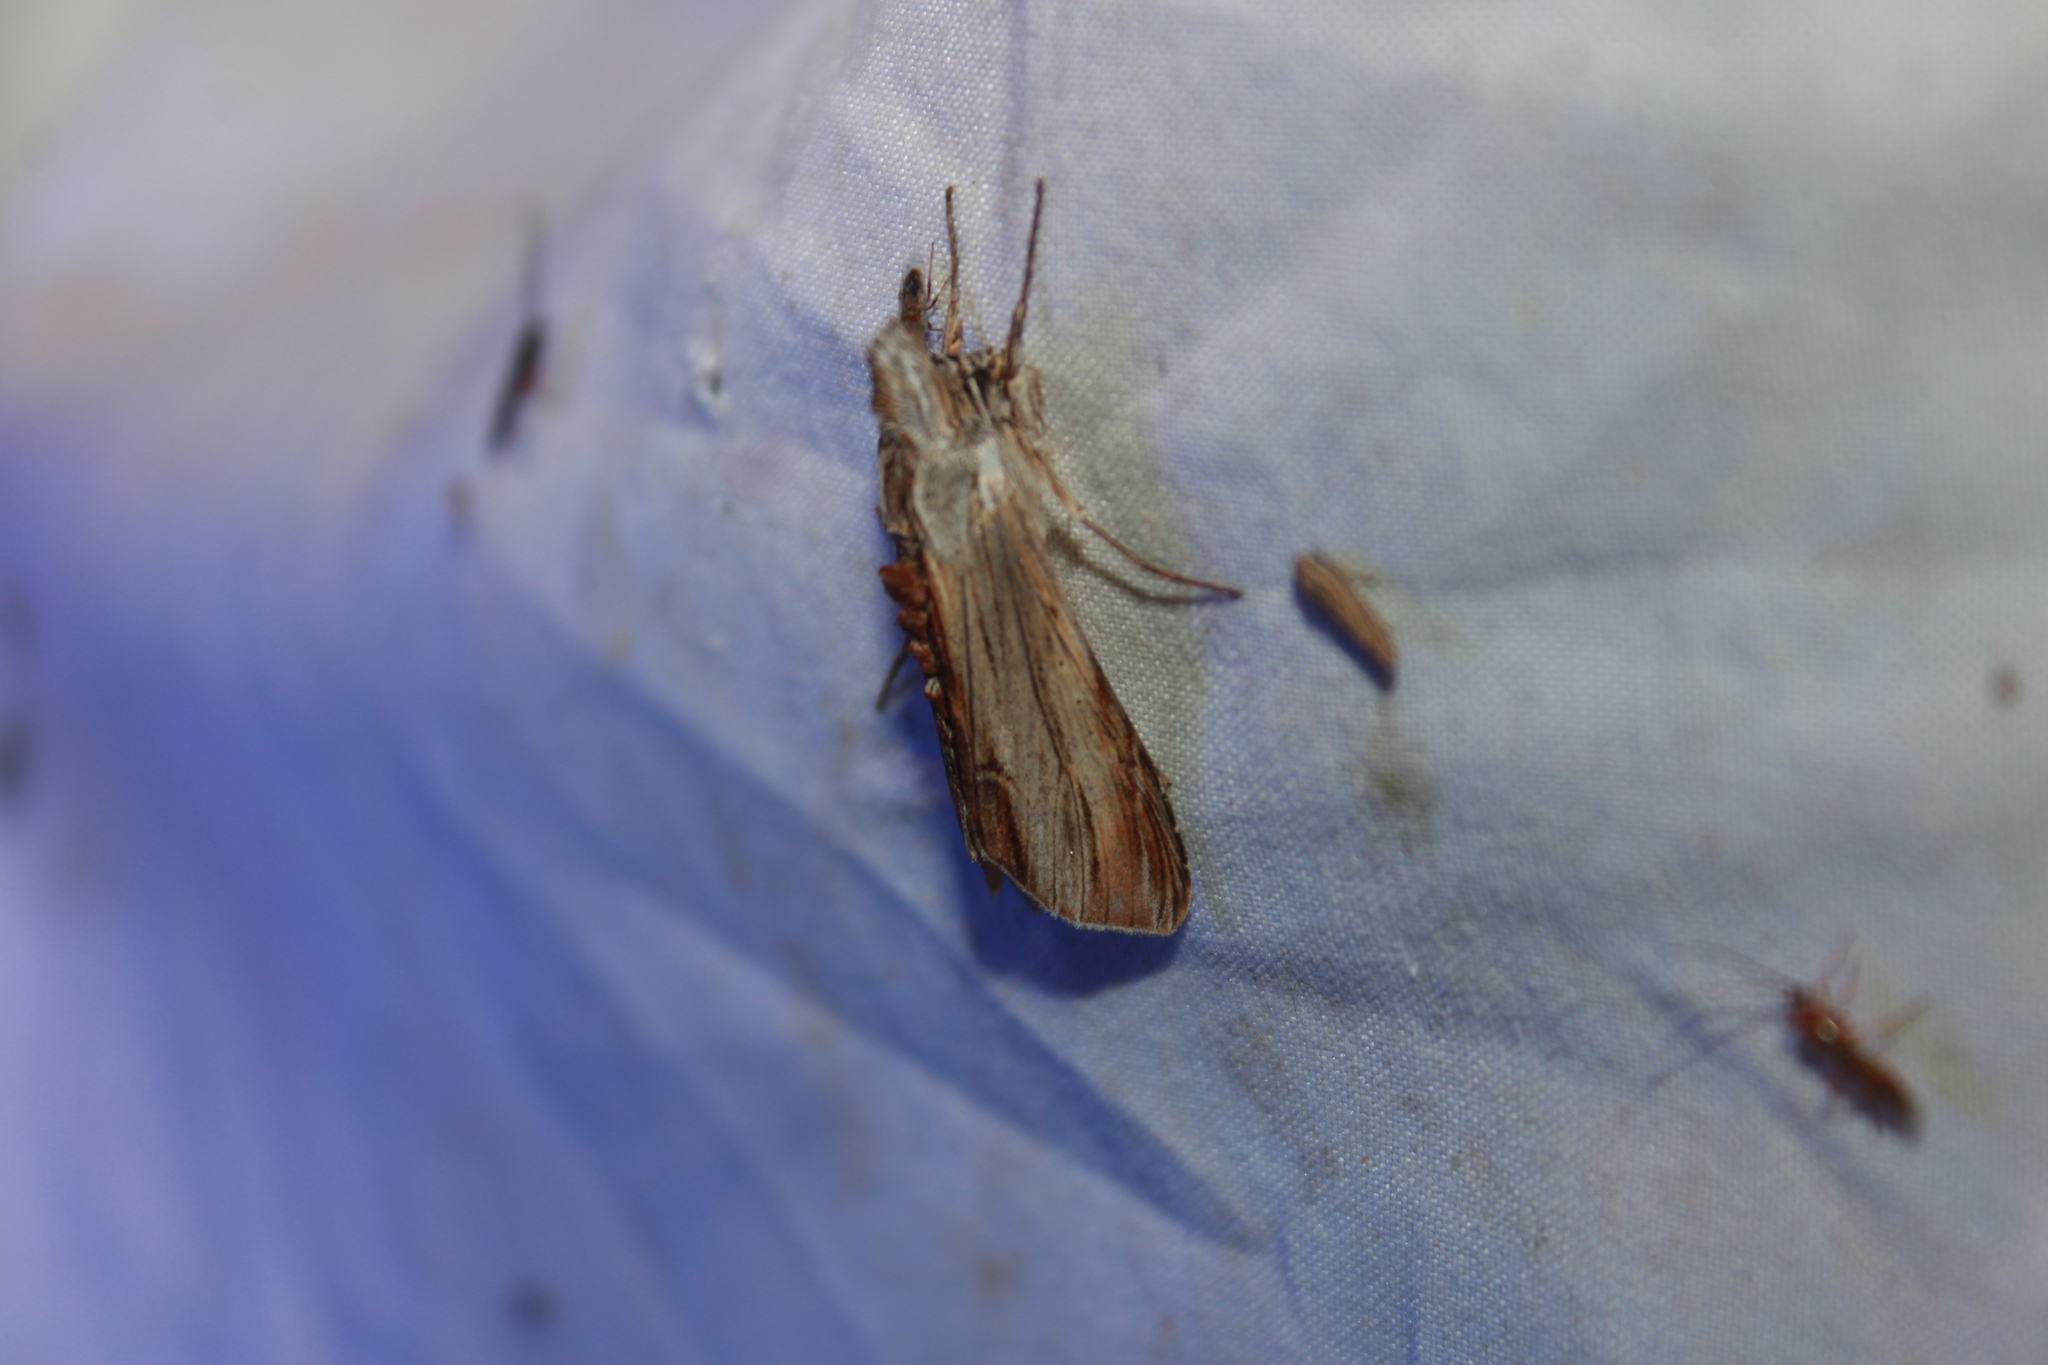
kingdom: Animalia
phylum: Arthropoda
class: Insecta
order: Lepidoptera
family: Noctuidae
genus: Cucullia
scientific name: Cucullia convexipennis
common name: Brown-hooded owlet
